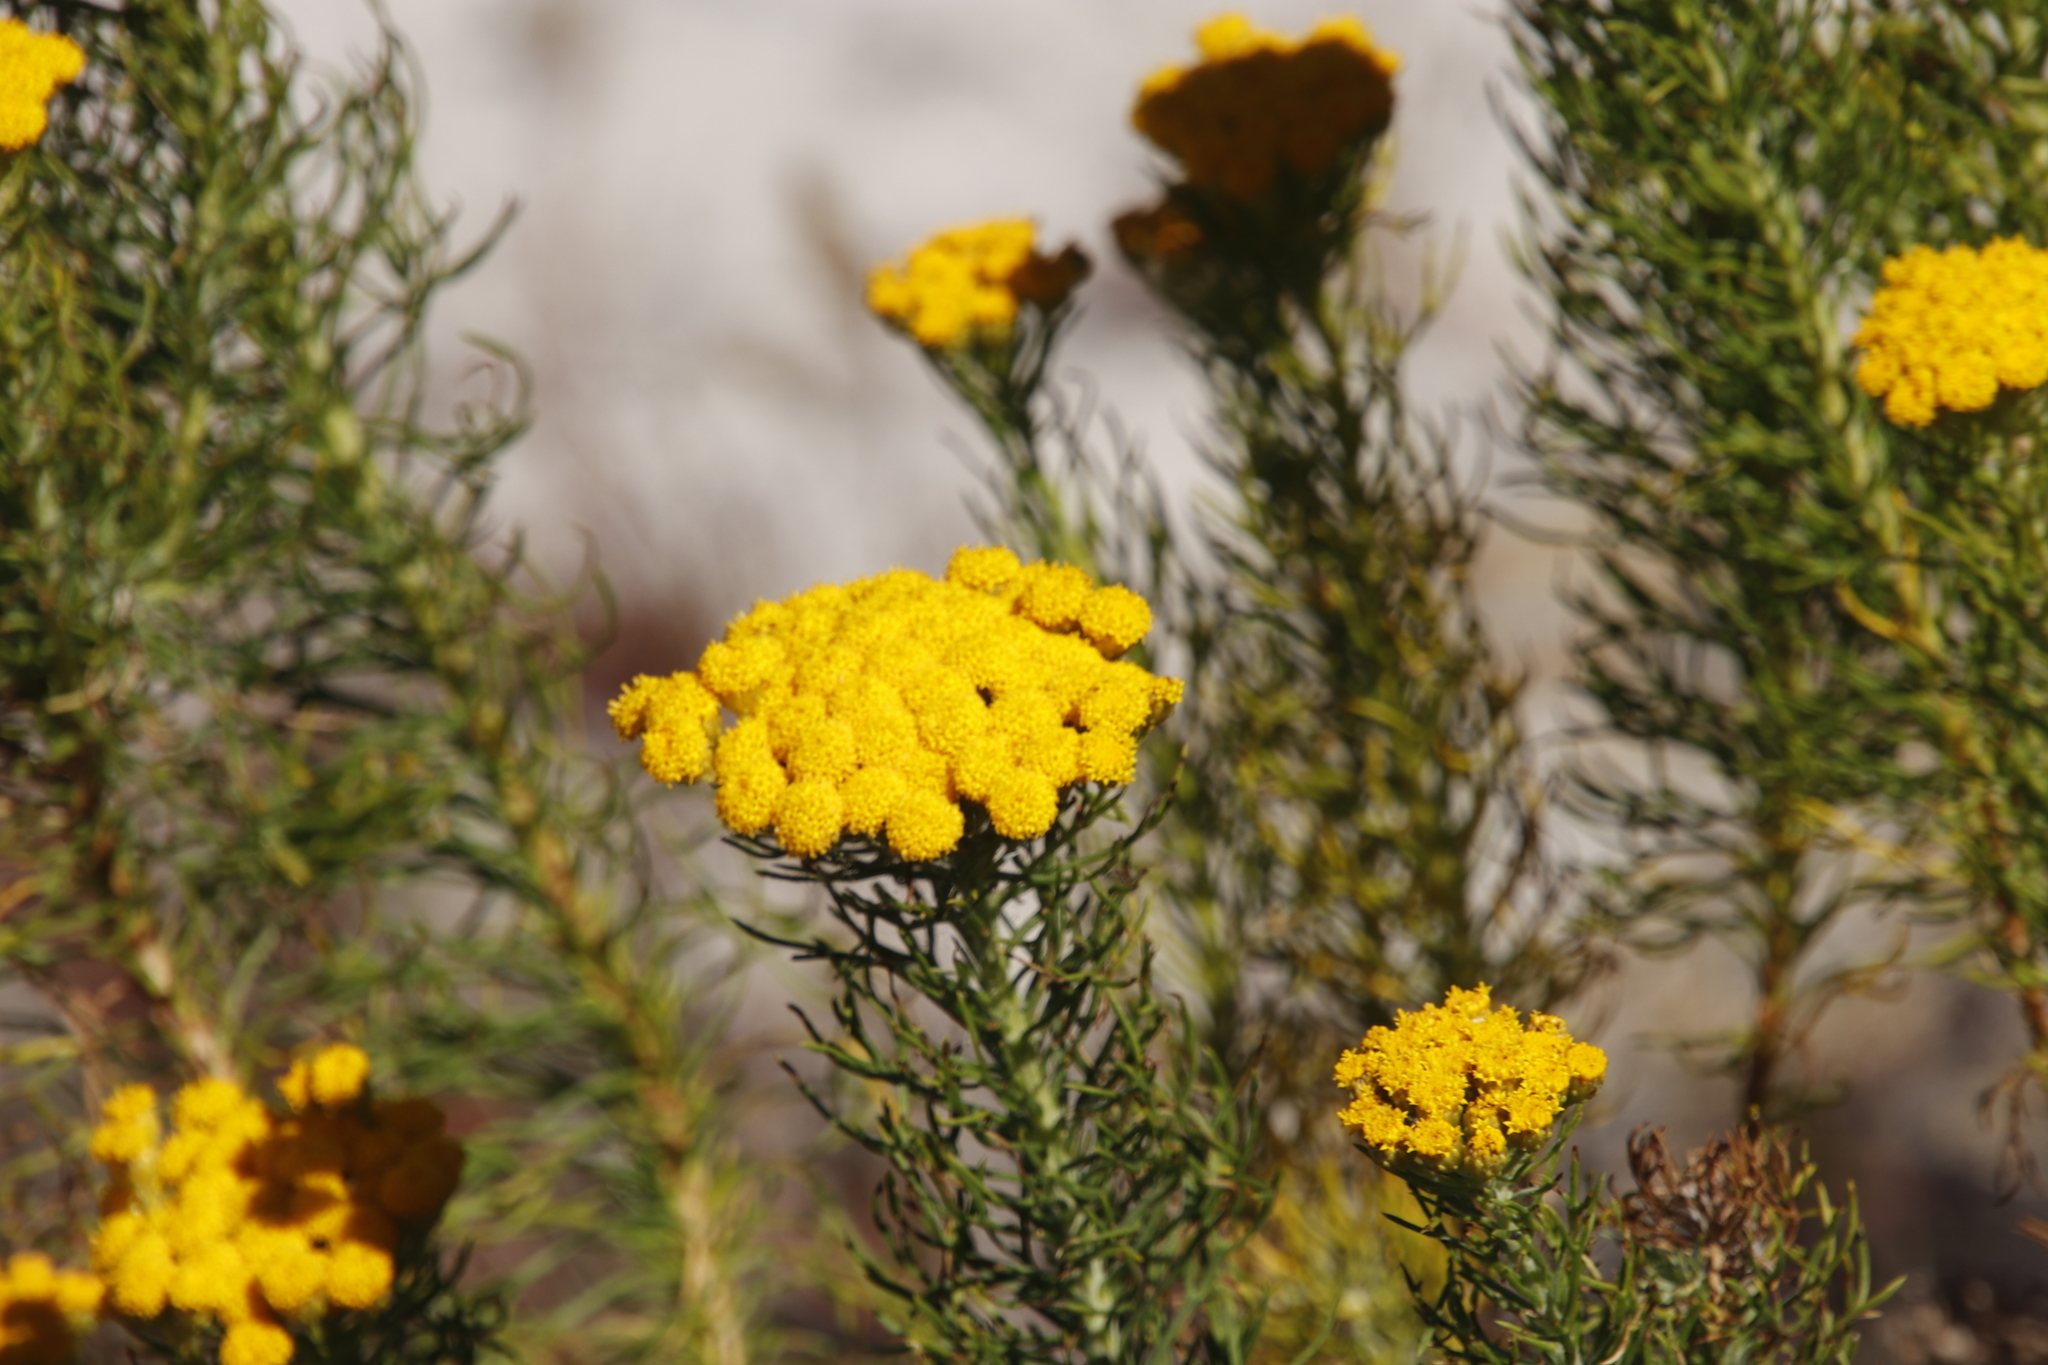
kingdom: Plantae
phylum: Tracheophyta
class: Magnoliopsida
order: Asterales
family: Asteraceae
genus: Athanasia
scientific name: Athanasia crithmifolia
